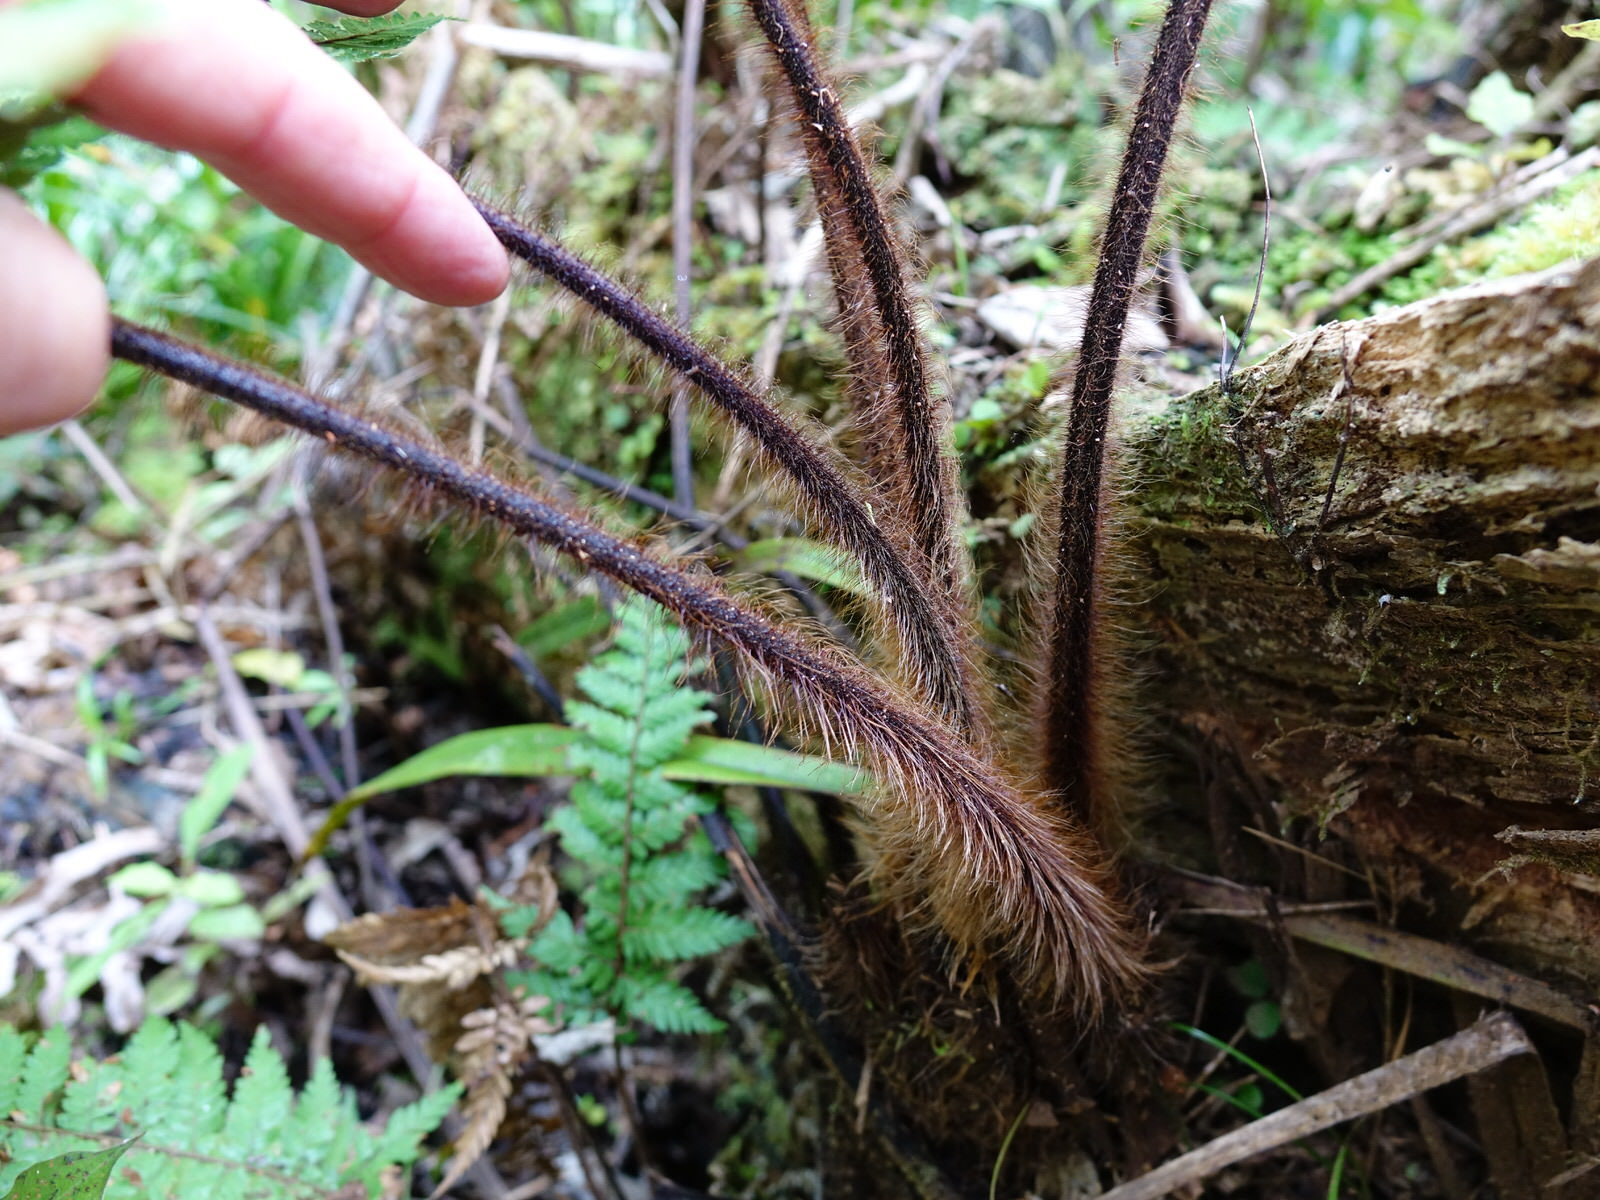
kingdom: Plantae
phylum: Tracheophyta
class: Polypodiopsida
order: Cyatheales
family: Dicksoniaceae
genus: Dicksonia
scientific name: Dicksonia squarrosa
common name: Hard treefern
